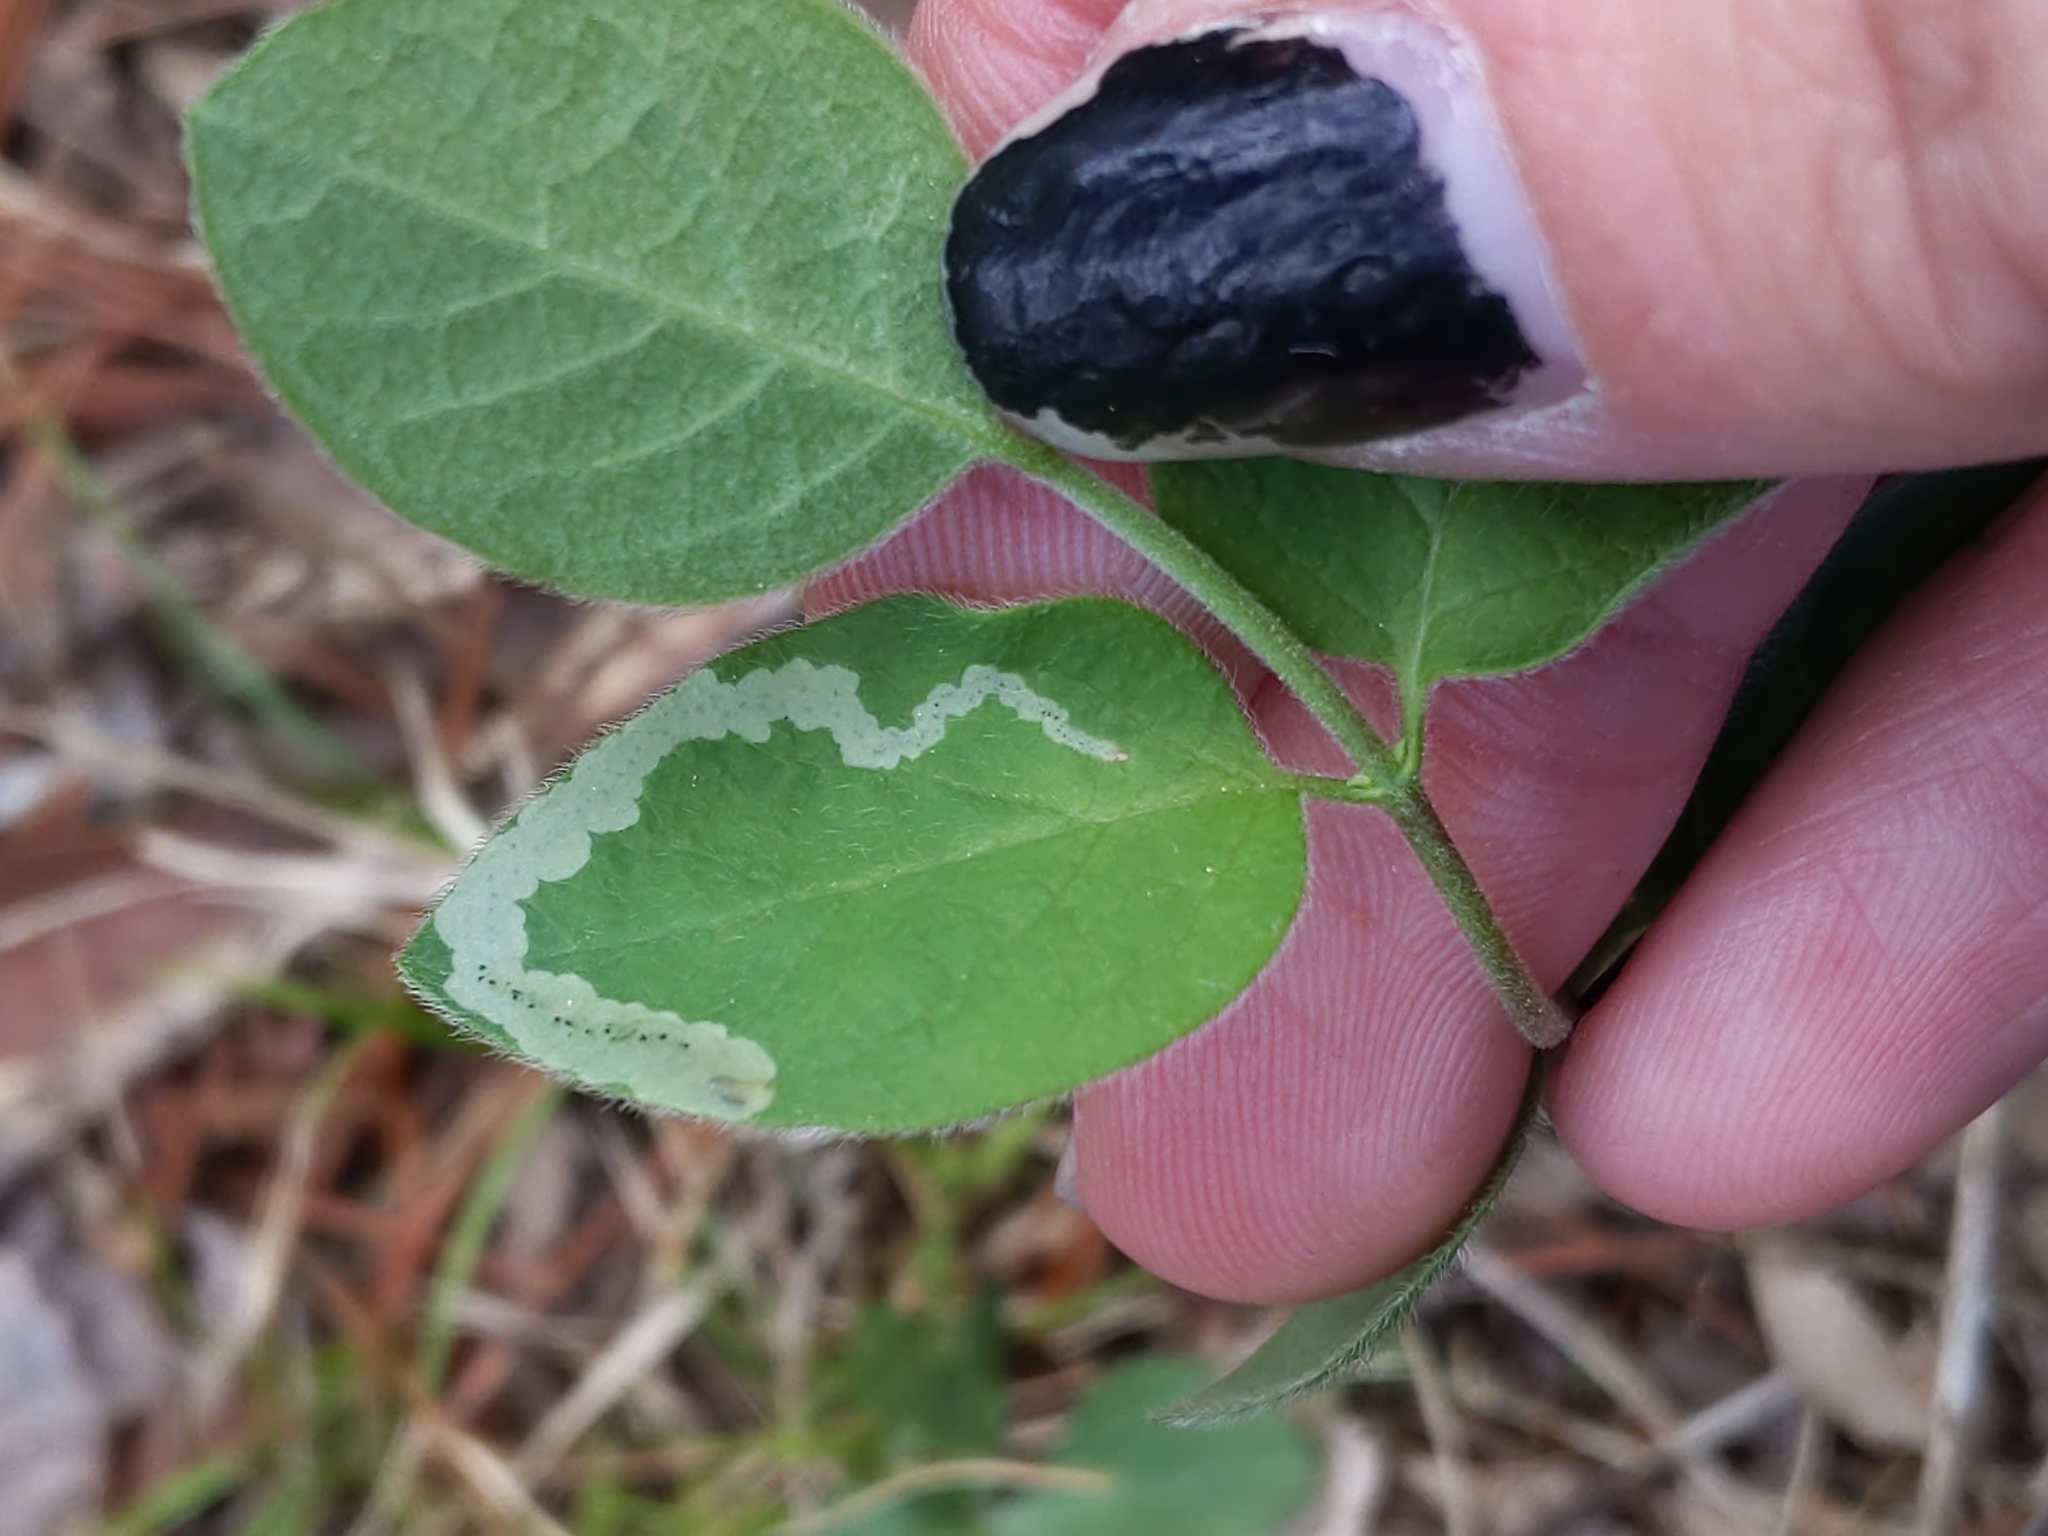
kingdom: Animalia
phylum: Arthropoda
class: Insecta
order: Diptera
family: Agromyzidae
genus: Aulagromyza
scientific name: Aulagromyza cornigera
